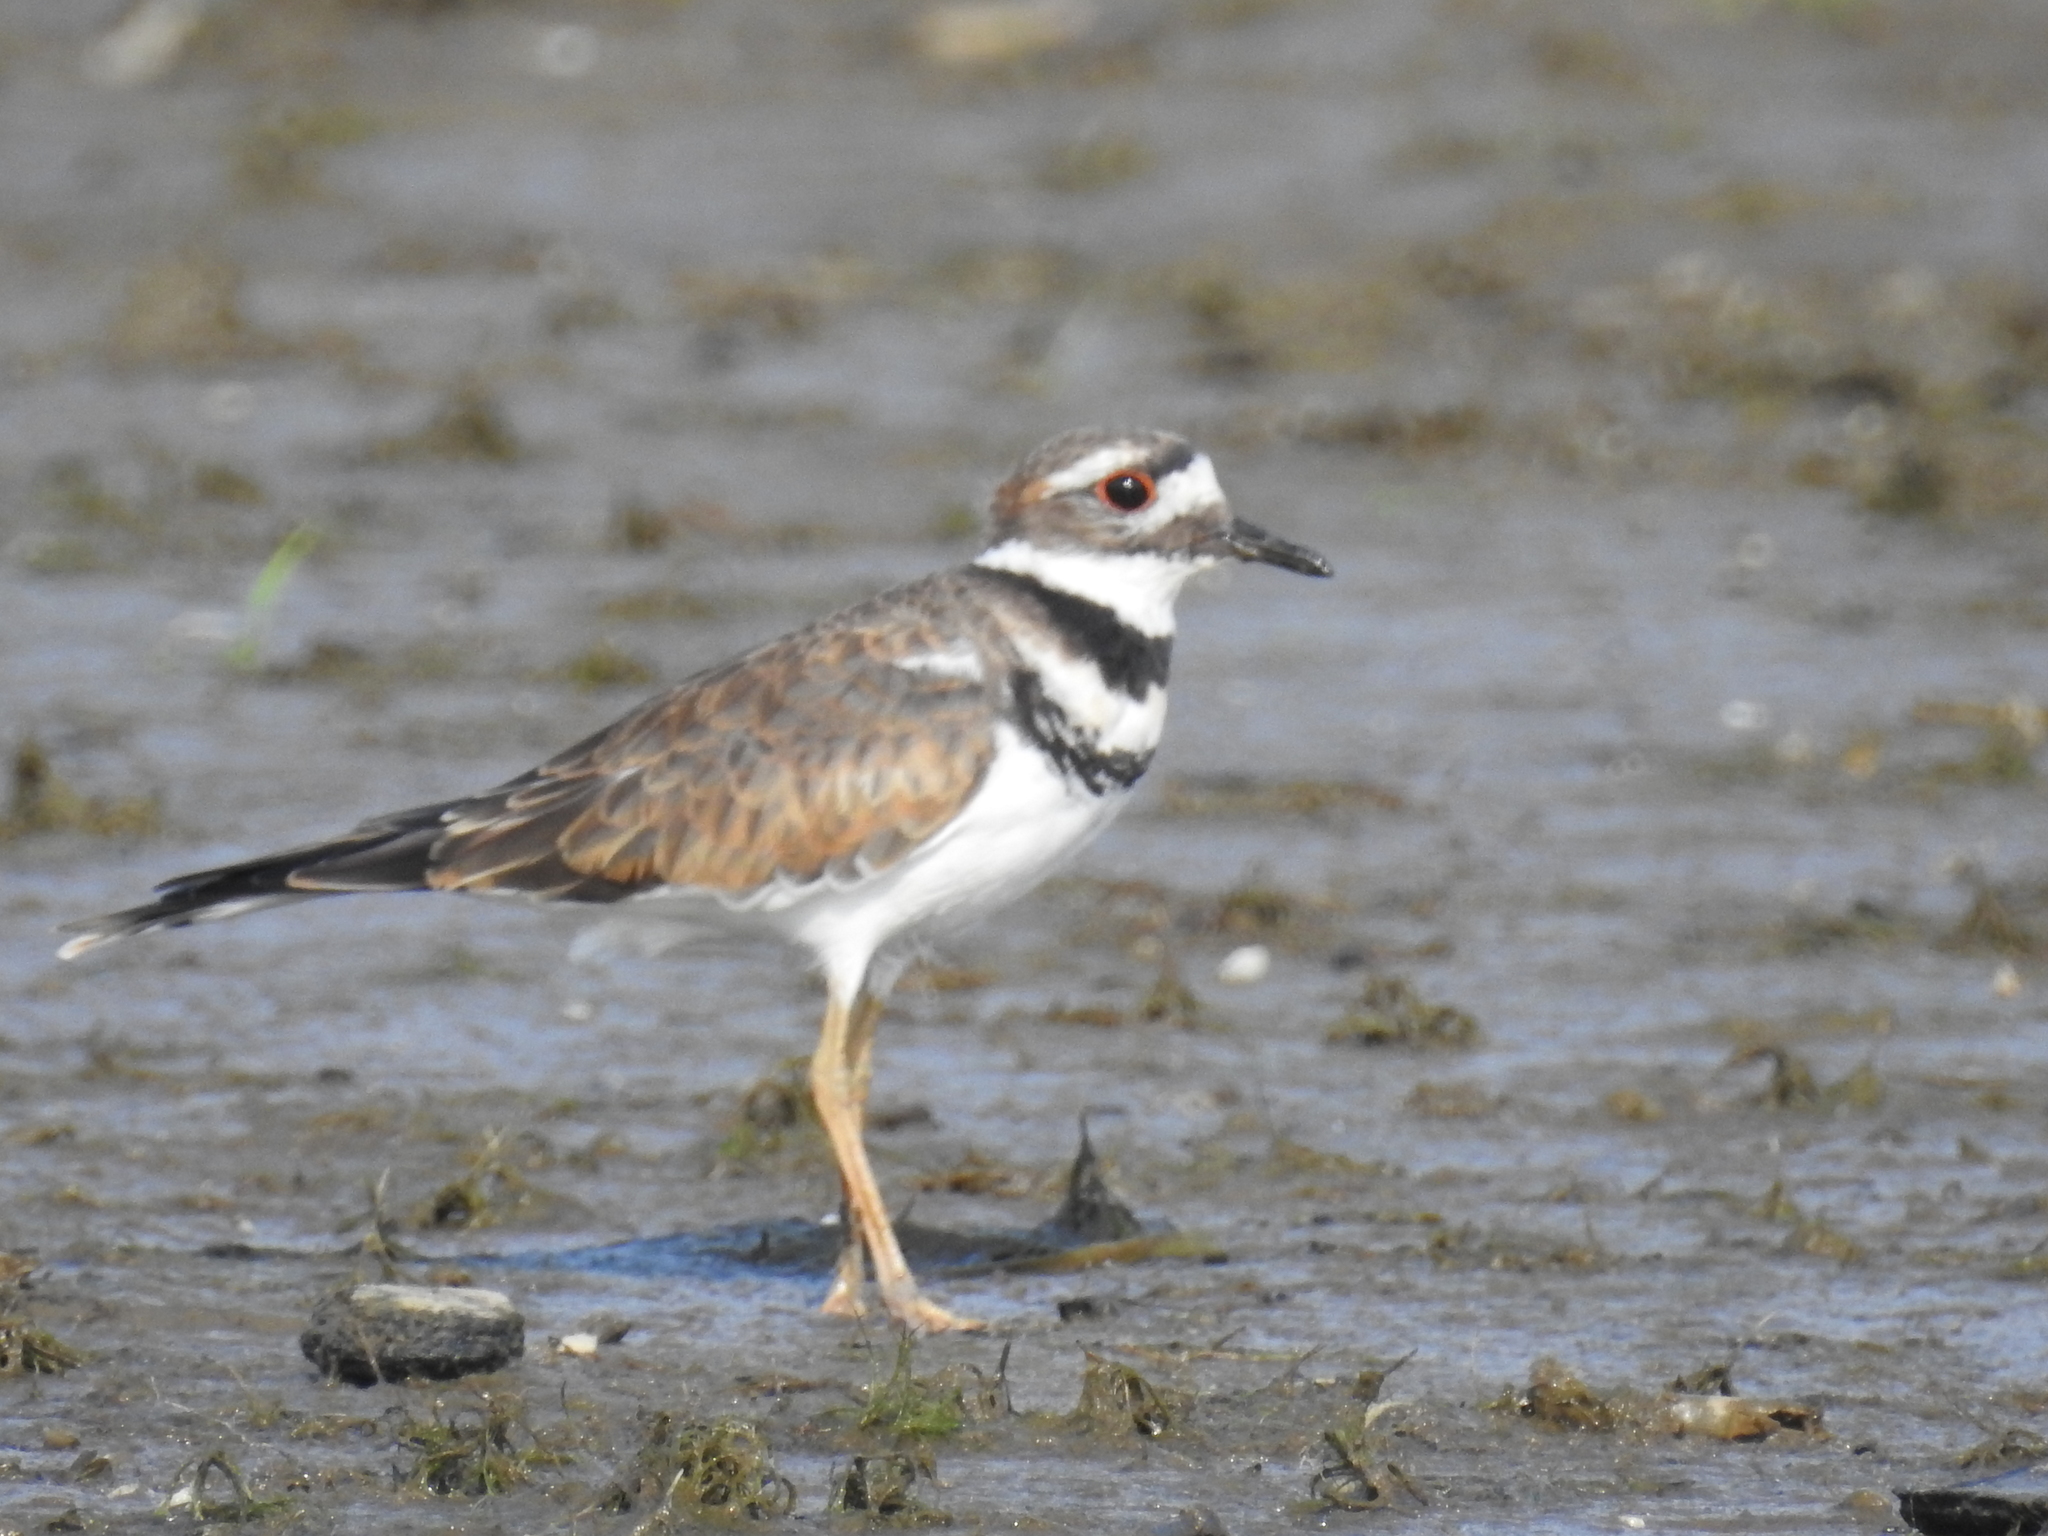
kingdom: Animalia
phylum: Chordata
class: Aves
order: Charadriiformes
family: Charadriidae
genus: Charadrius
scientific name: Charadrius vociferus
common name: Killdeer
